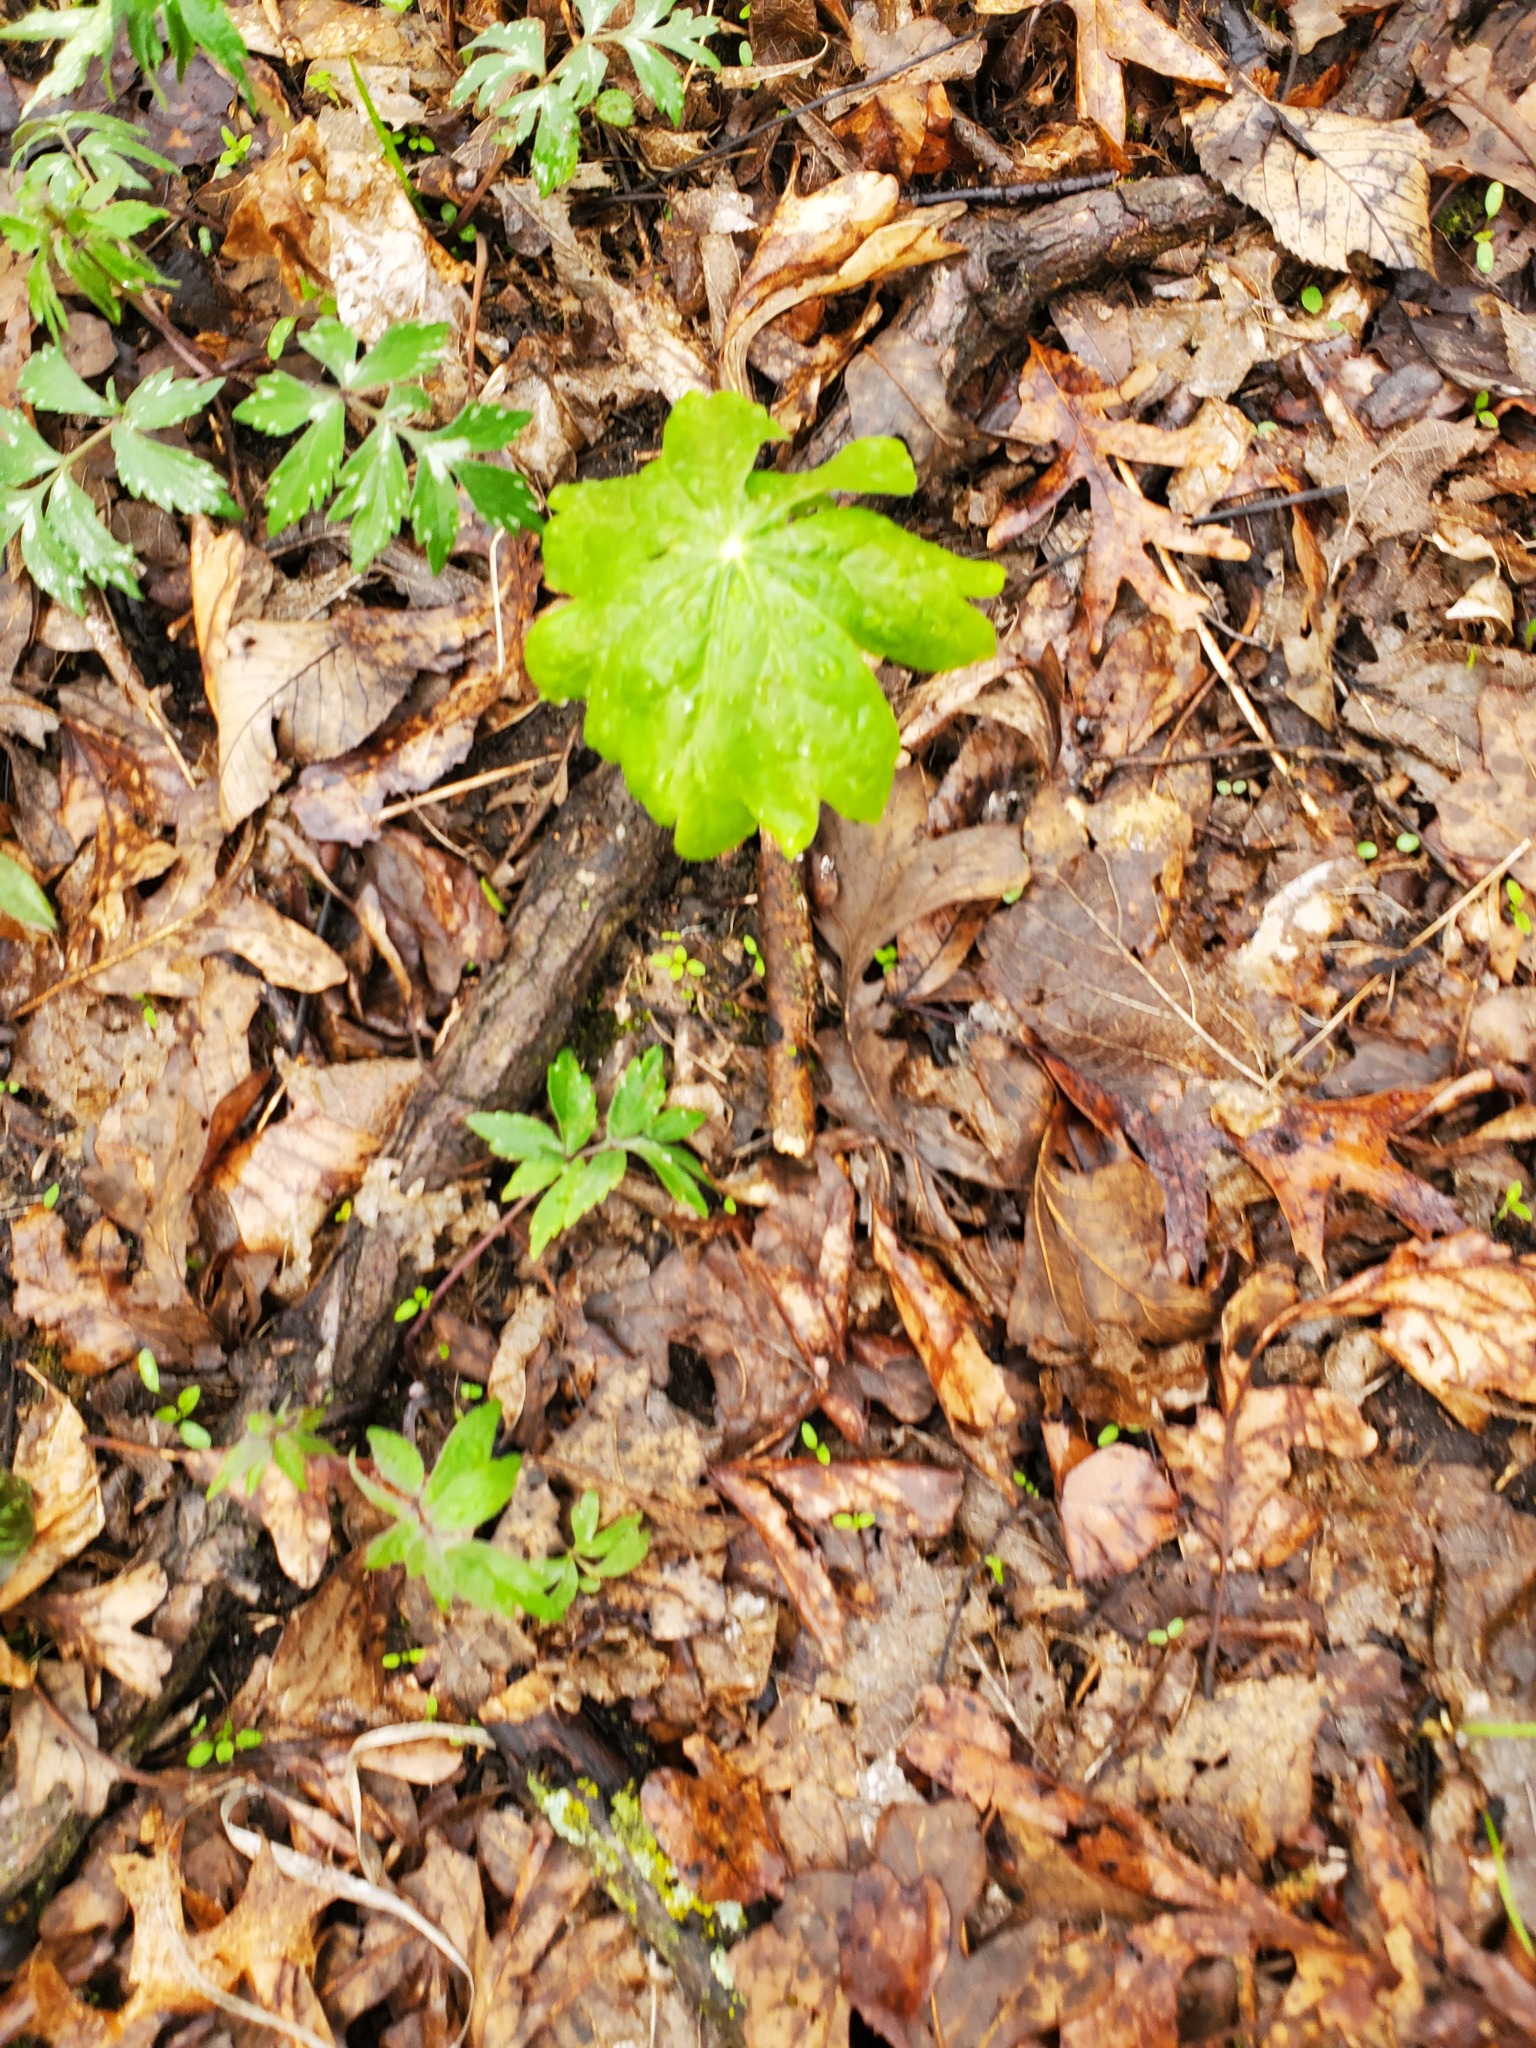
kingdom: Plantae
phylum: Tracheophyta
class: Magnoliopsida
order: Ranunculales
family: Berberidaceae
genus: Podophyllum
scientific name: Podophyllum peltatum
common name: Wild mandrake
